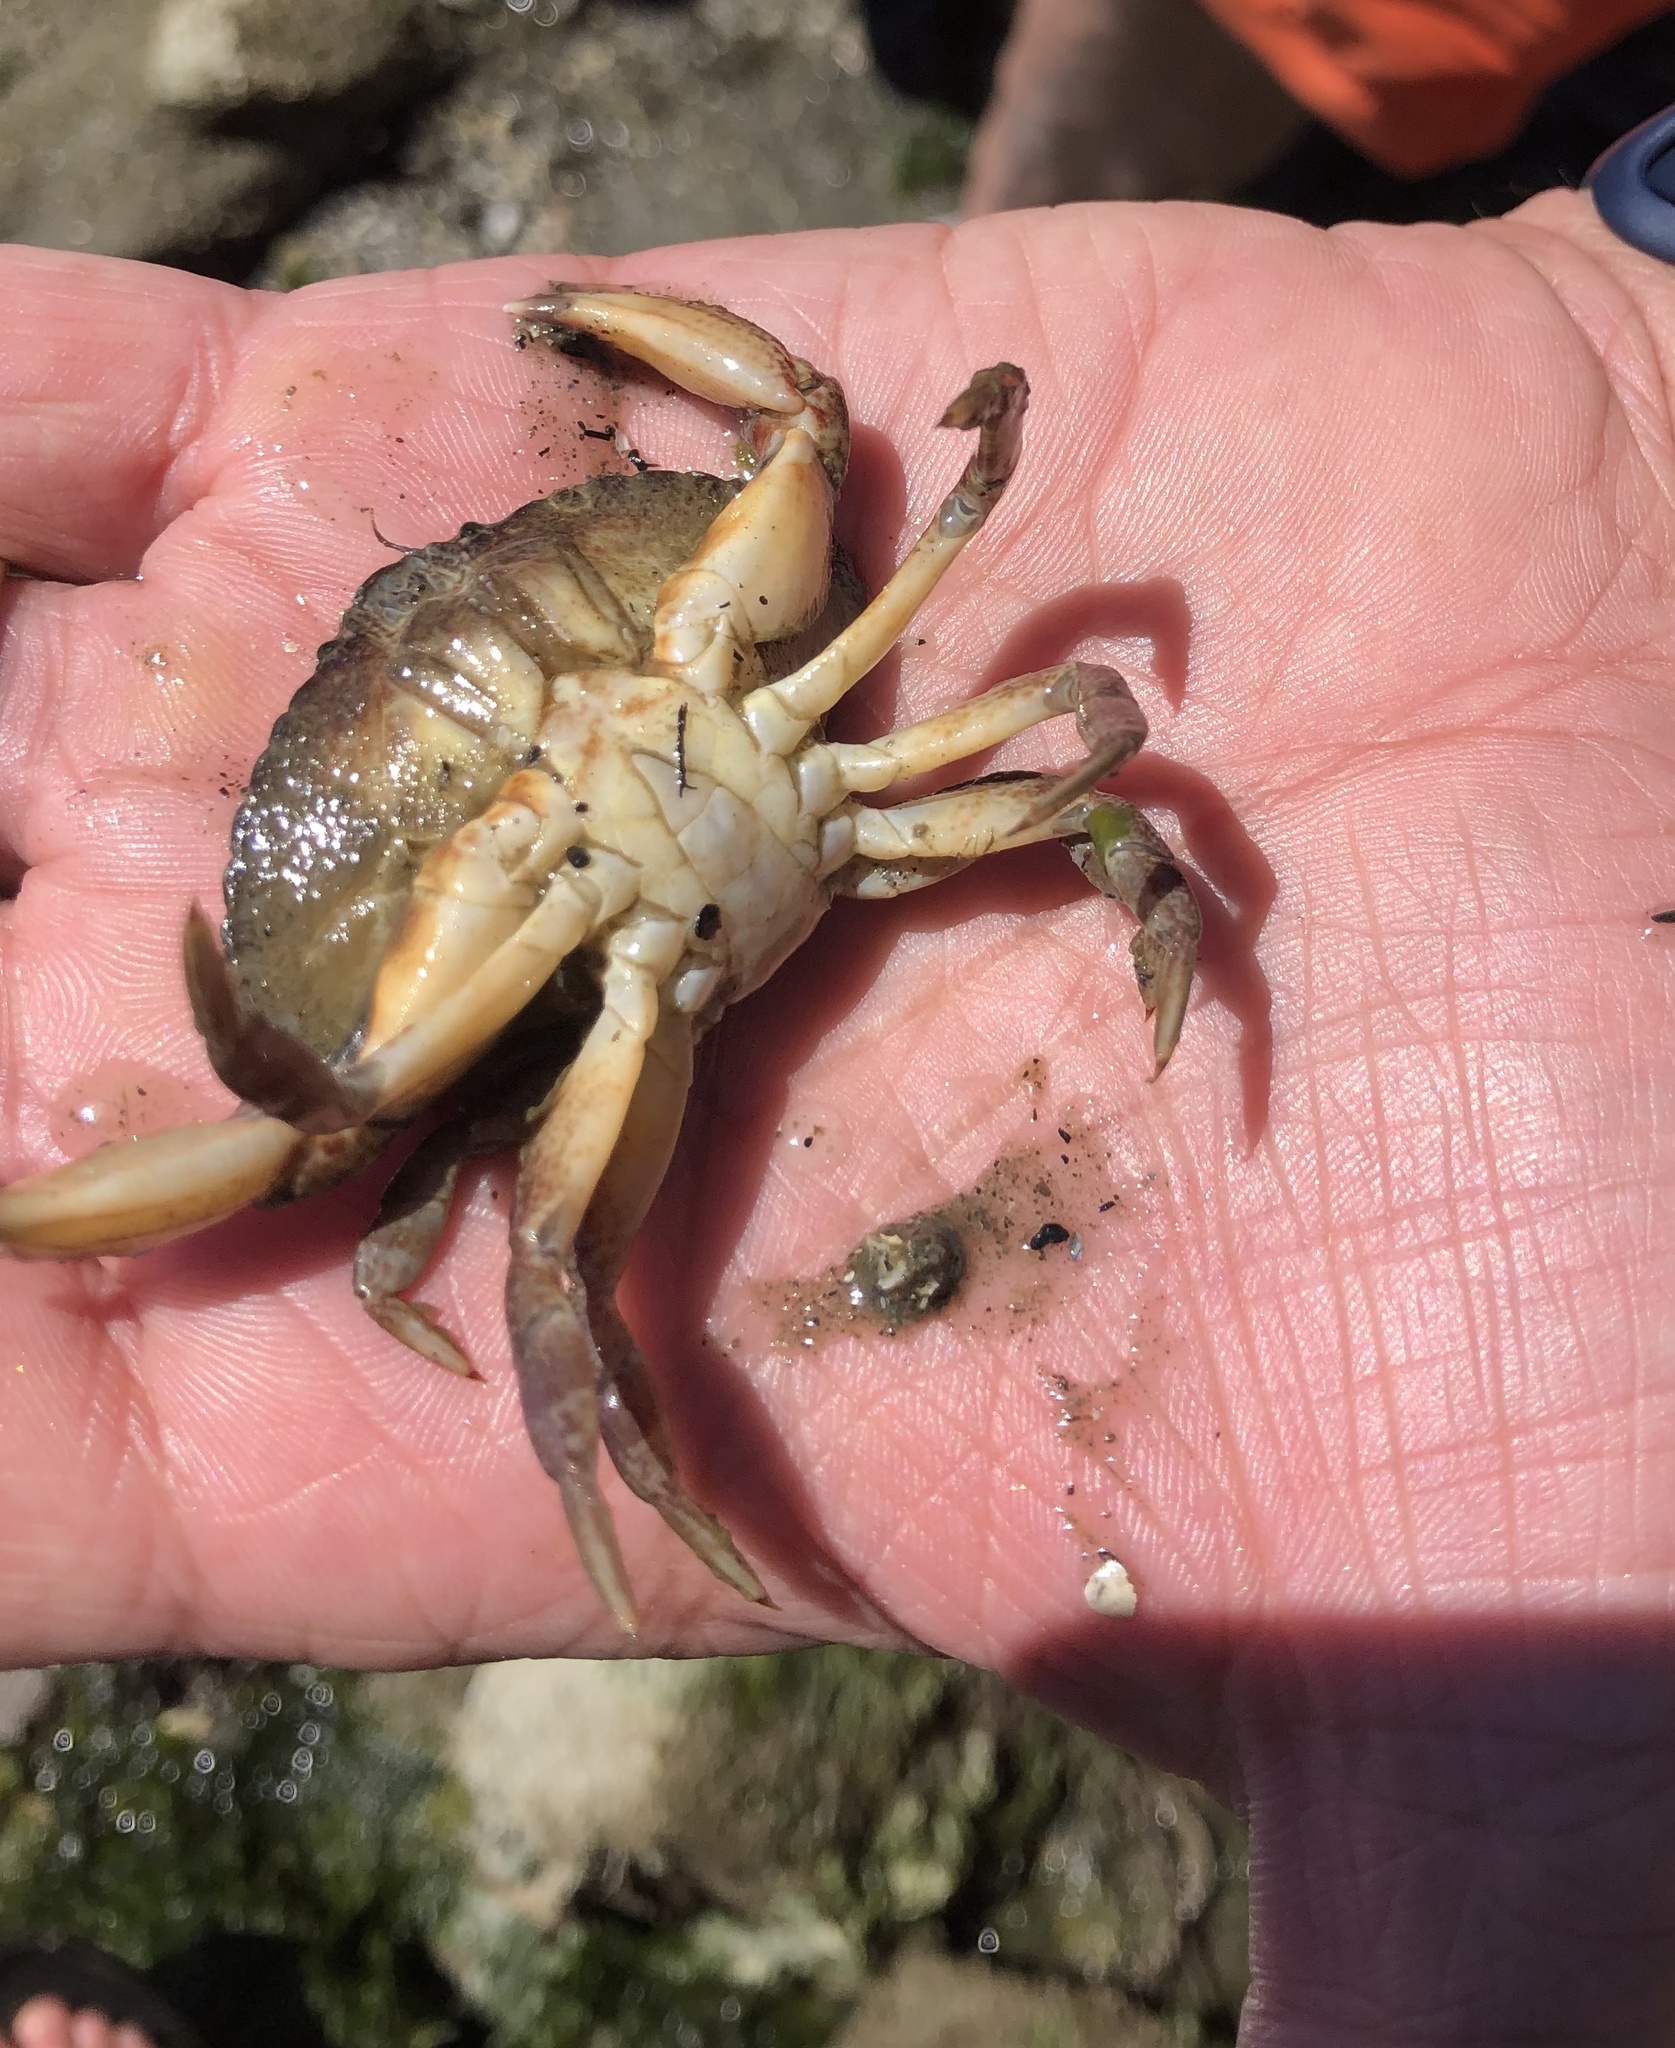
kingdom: Animalia
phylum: Arthropoda
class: Malacostraca
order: Decapoda
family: Cancridae
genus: Cancer
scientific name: Cancer productus
